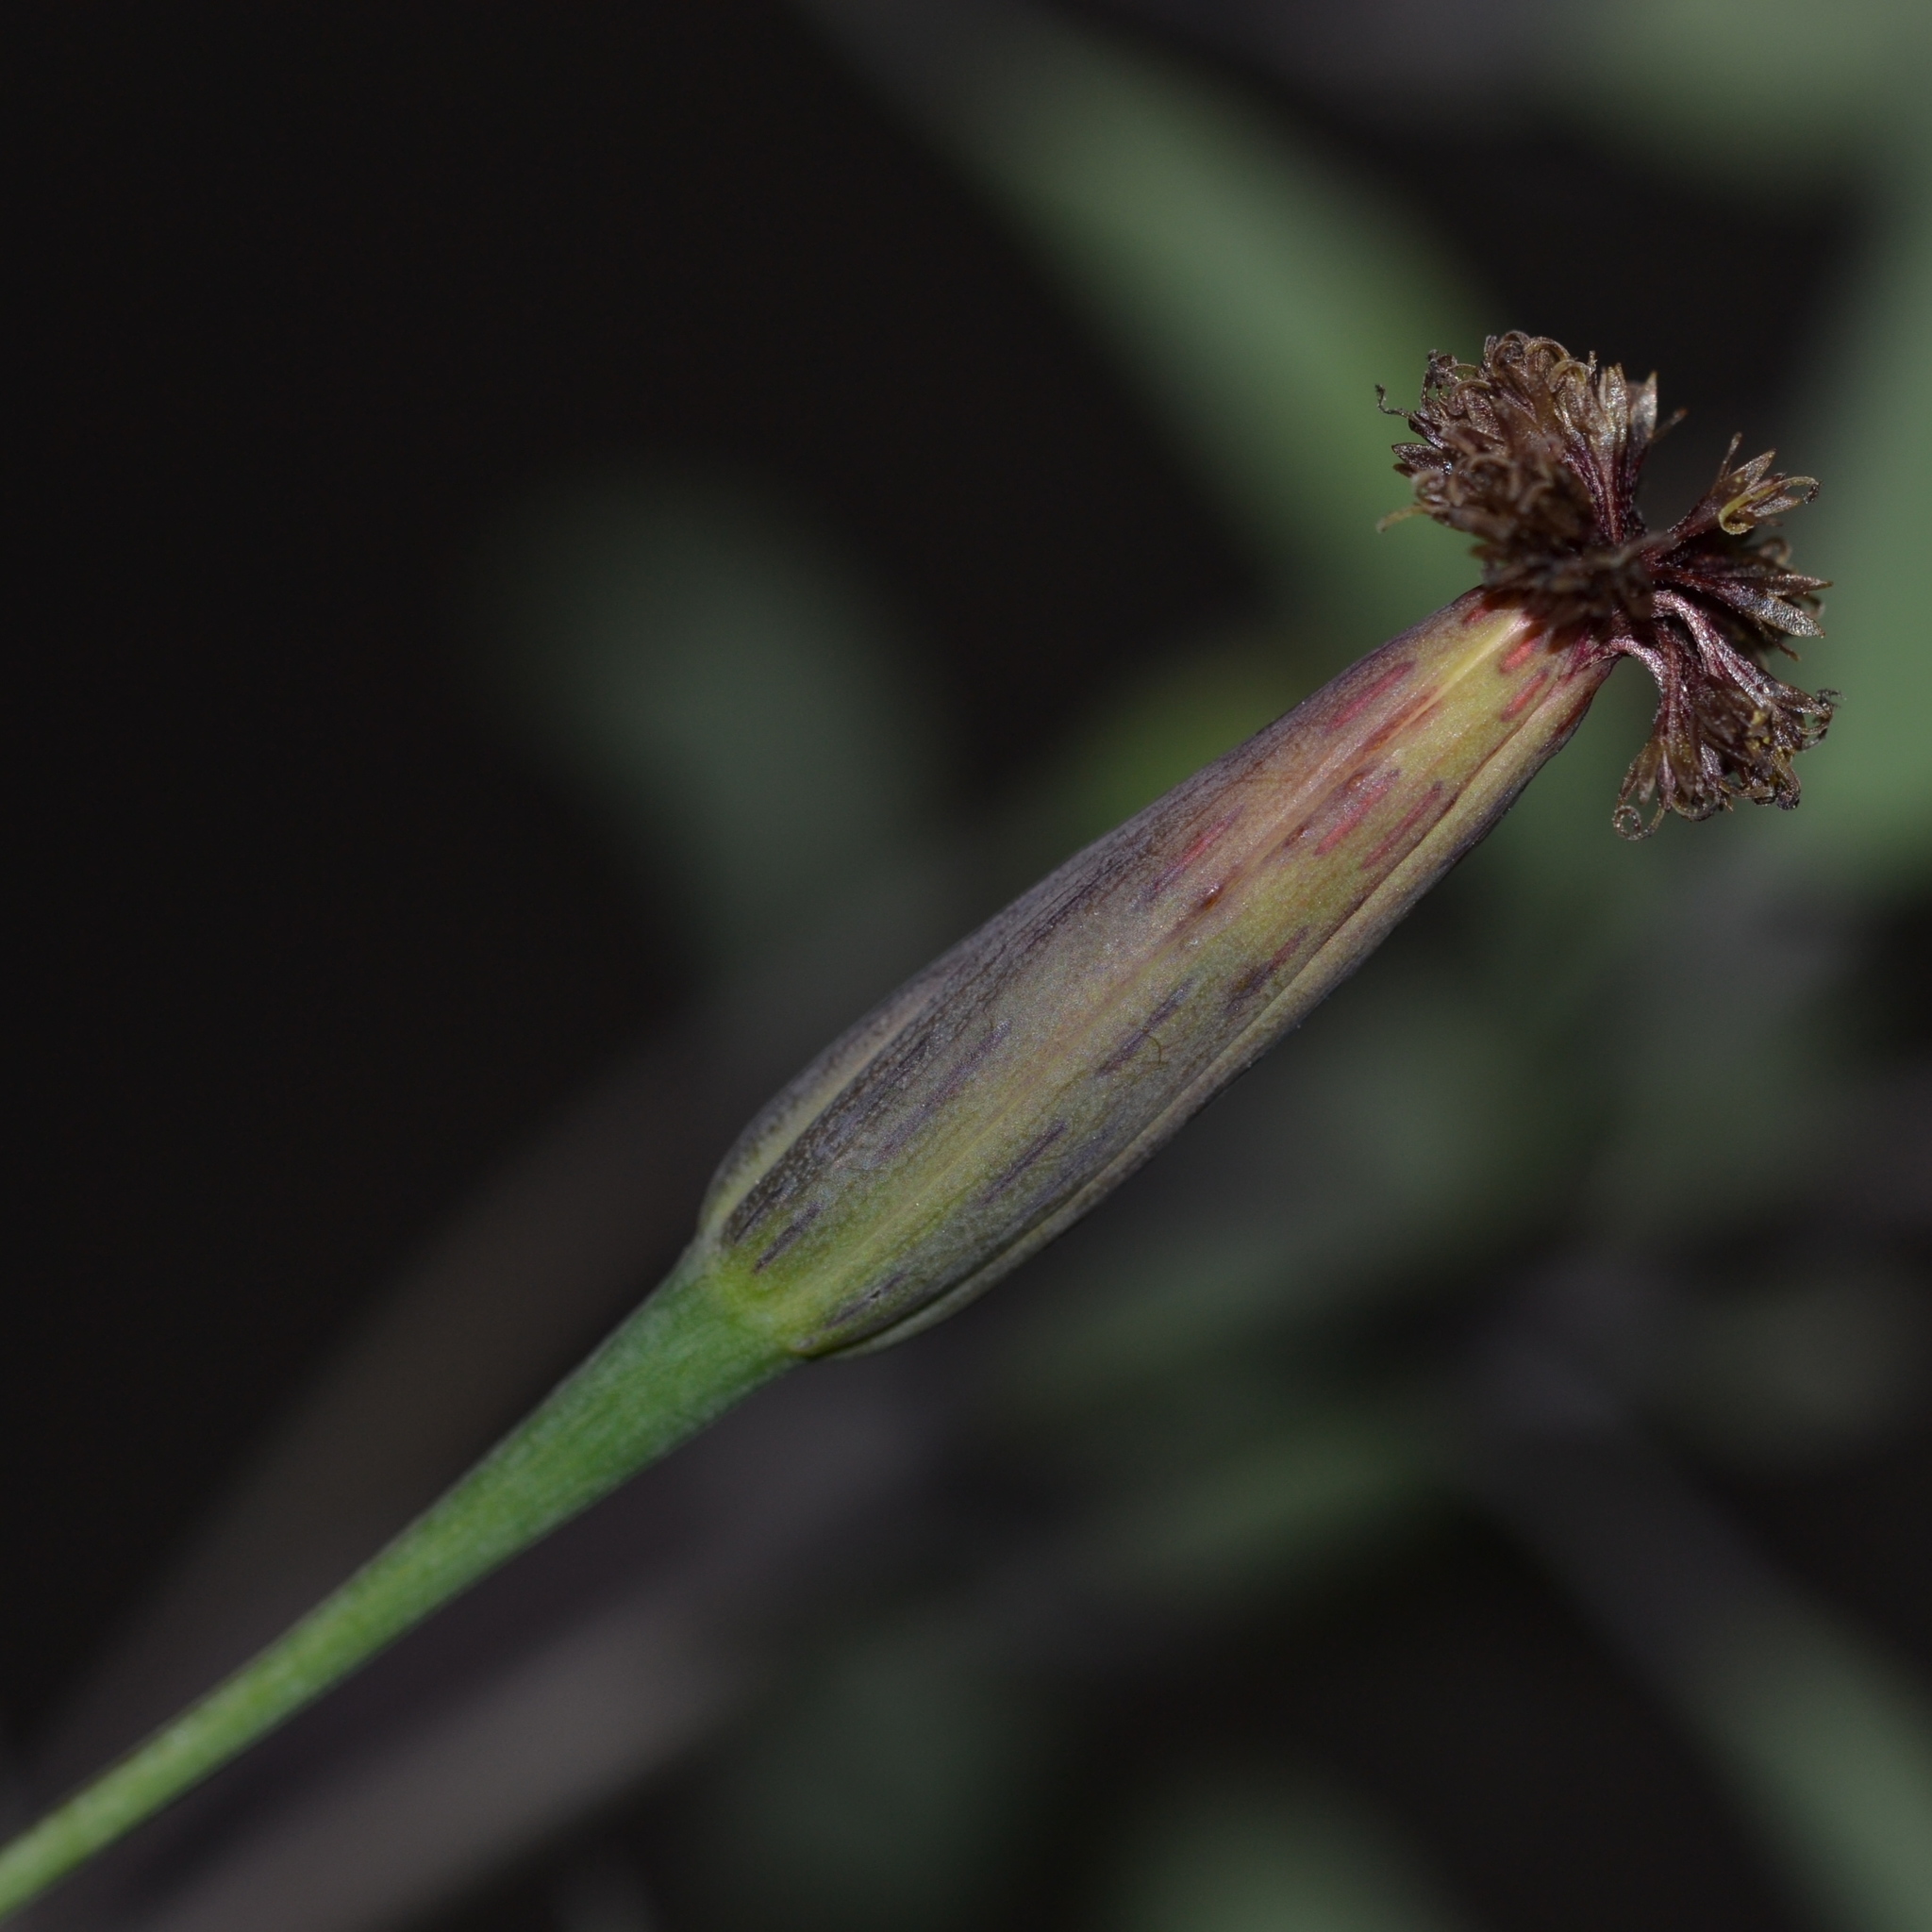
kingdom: Plantae
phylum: Tracheophyta
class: Magnoliopsida
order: Asterales
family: Asteraceae
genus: Porophyllum
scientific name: Porophyllum ruderale
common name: Yerba porosa
